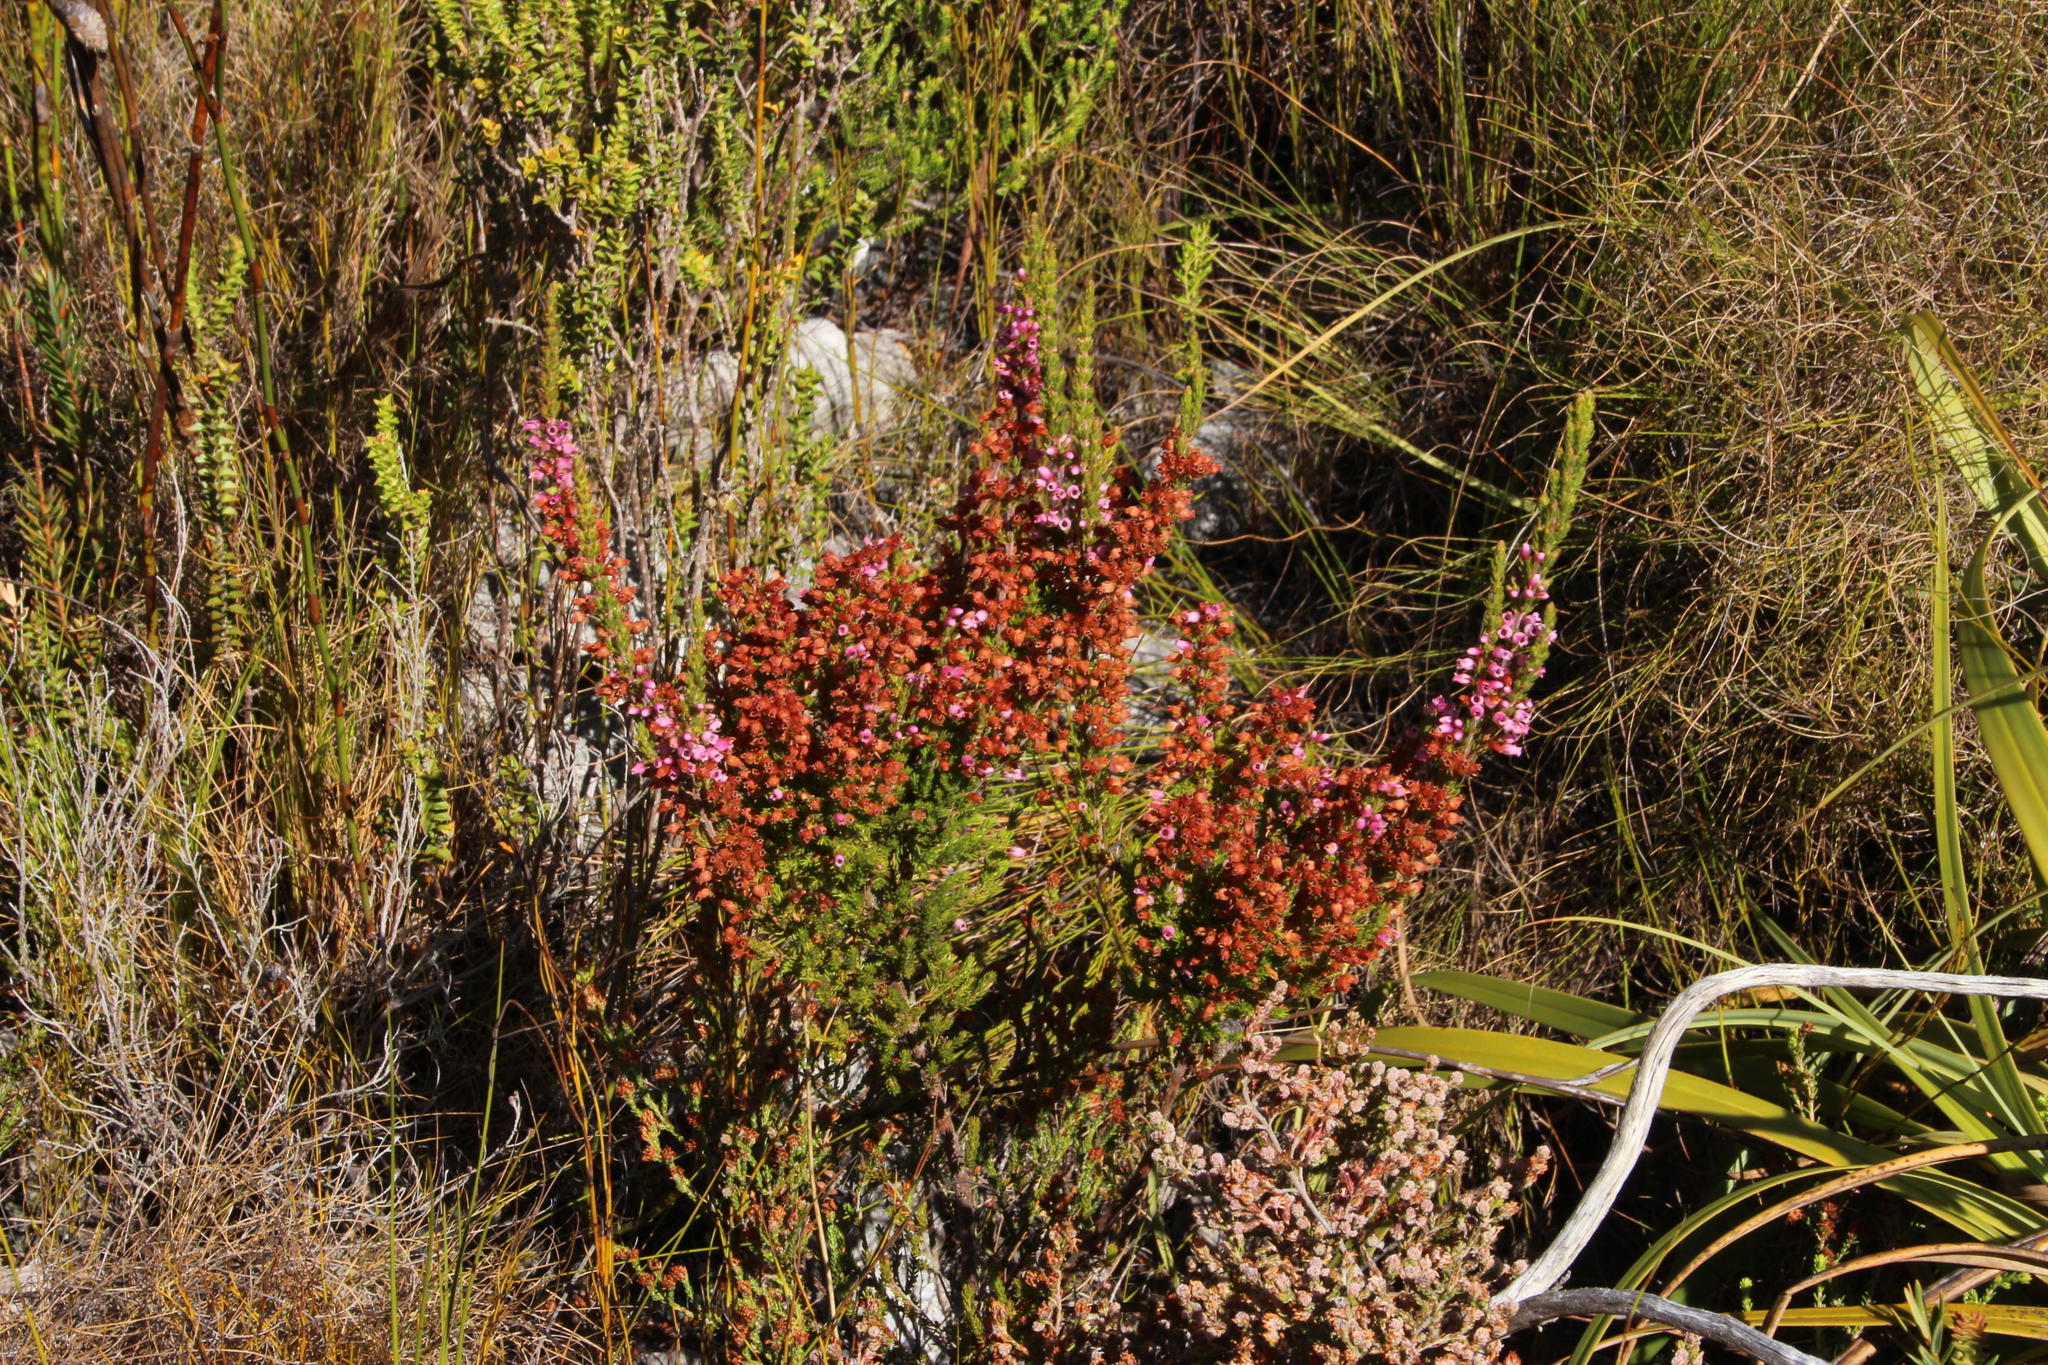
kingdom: Plantae
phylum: Tracheophyta
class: Magnoliopsida
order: Ericales
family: Ericaceae
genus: Erica
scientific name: Erica tenella
